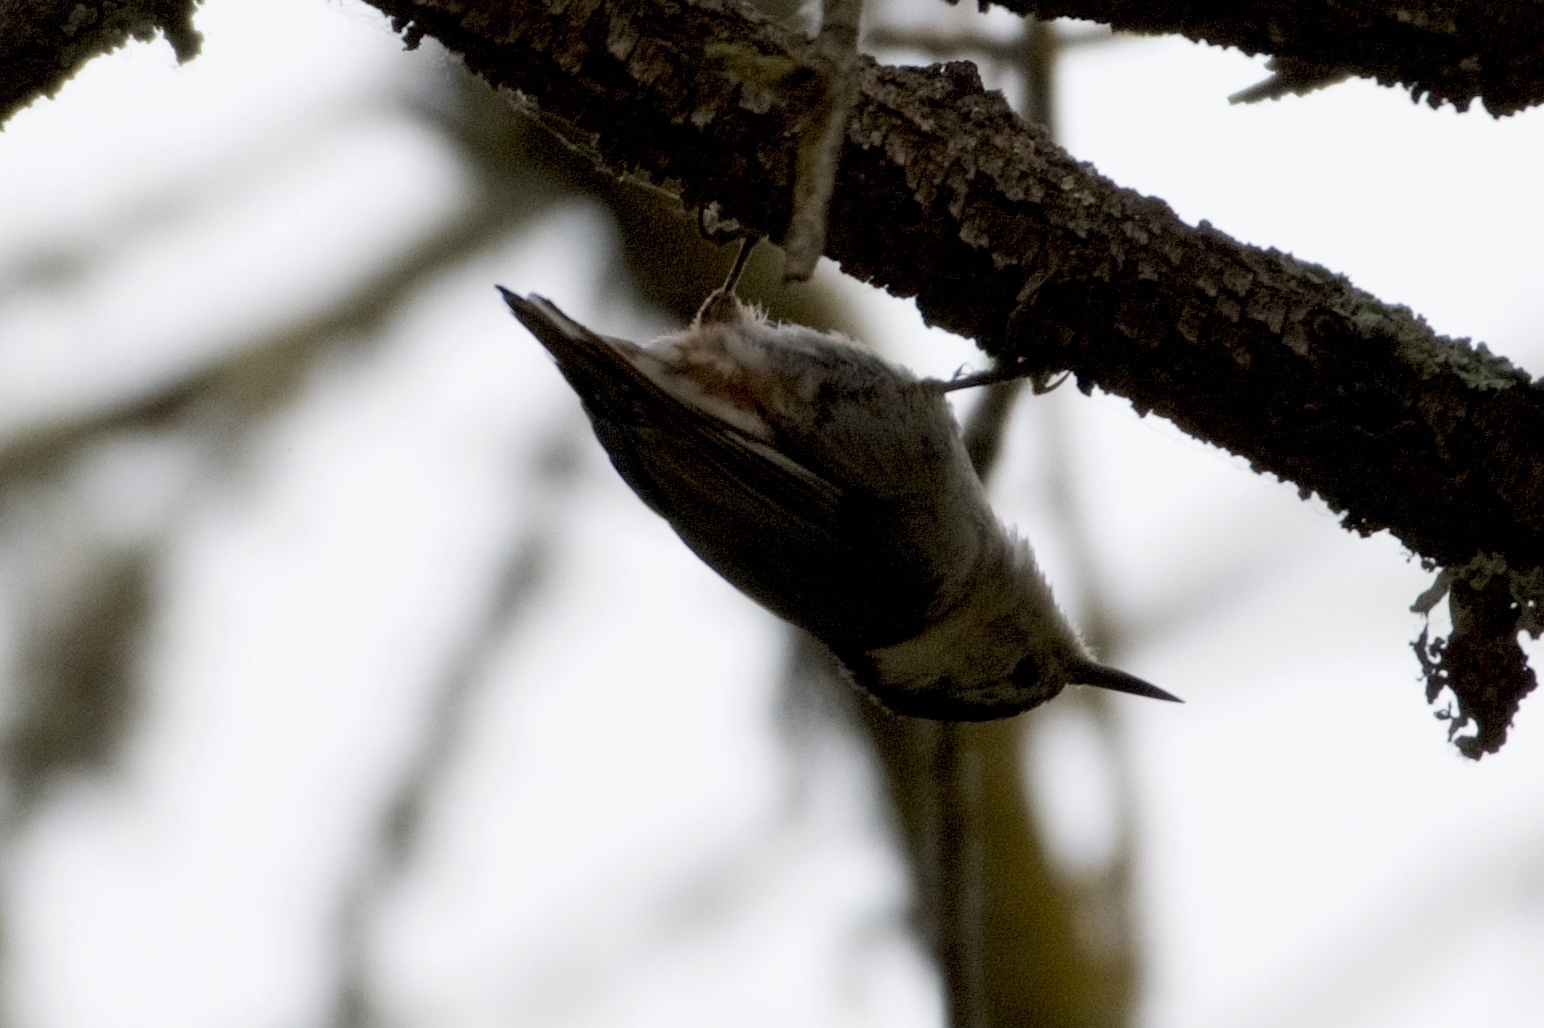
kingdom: Animalia
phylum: Chordata
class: Aves
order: Passeriformes
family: Sittidae
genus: Sitta
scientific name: Sitta carolinensis
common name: White-breasted nuthatch
